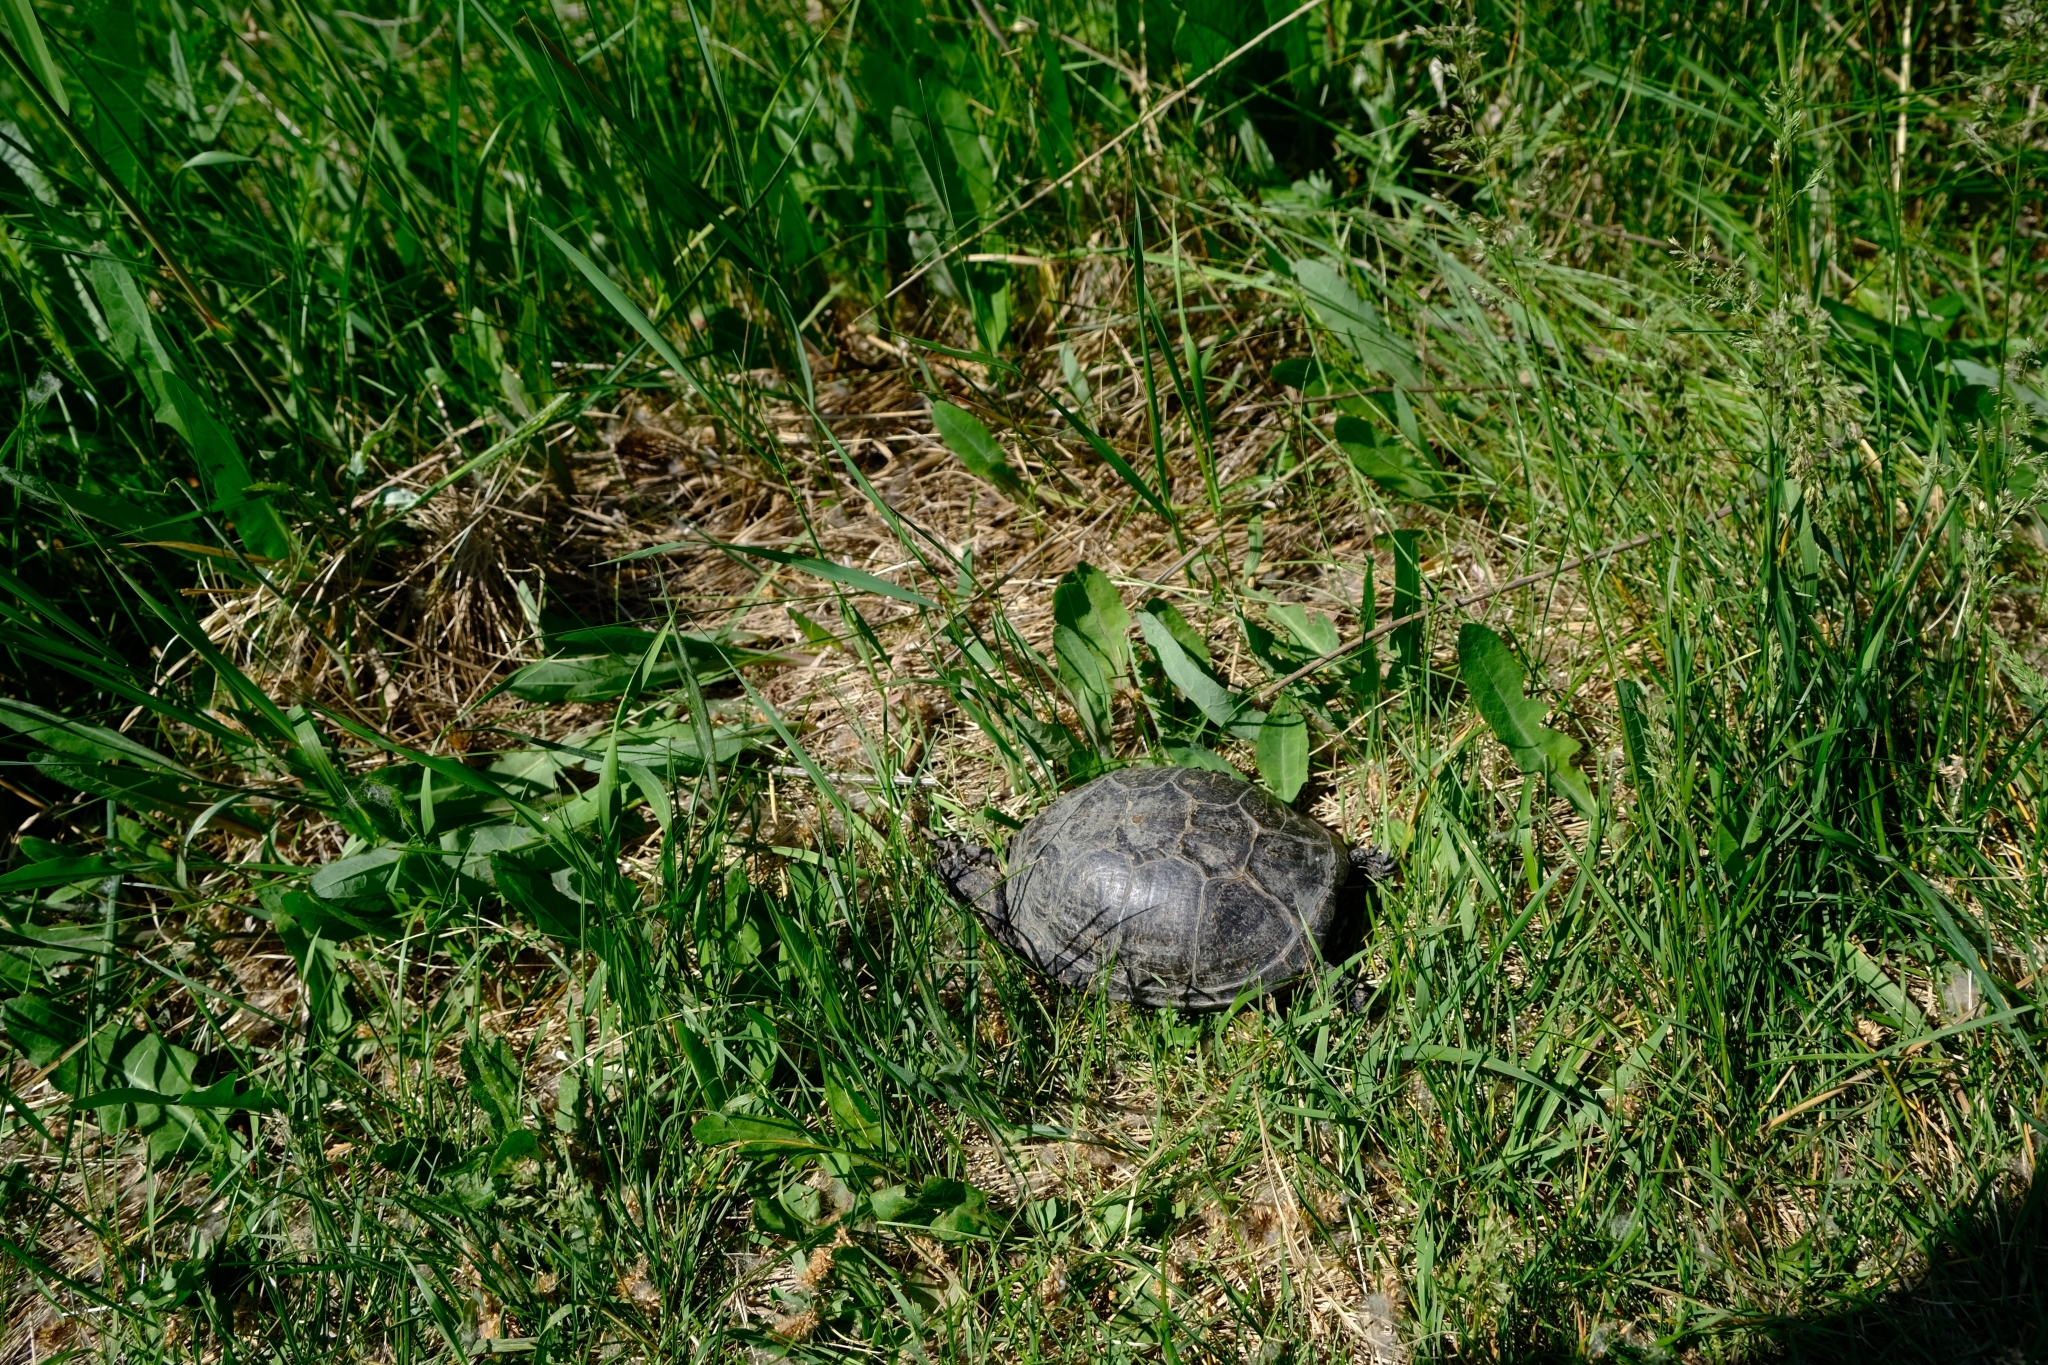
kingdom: Animalia
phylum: Chordata
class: Testudines
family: Emydidae
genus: Emys
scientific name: Emys orbicularis
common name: European pond turtle
